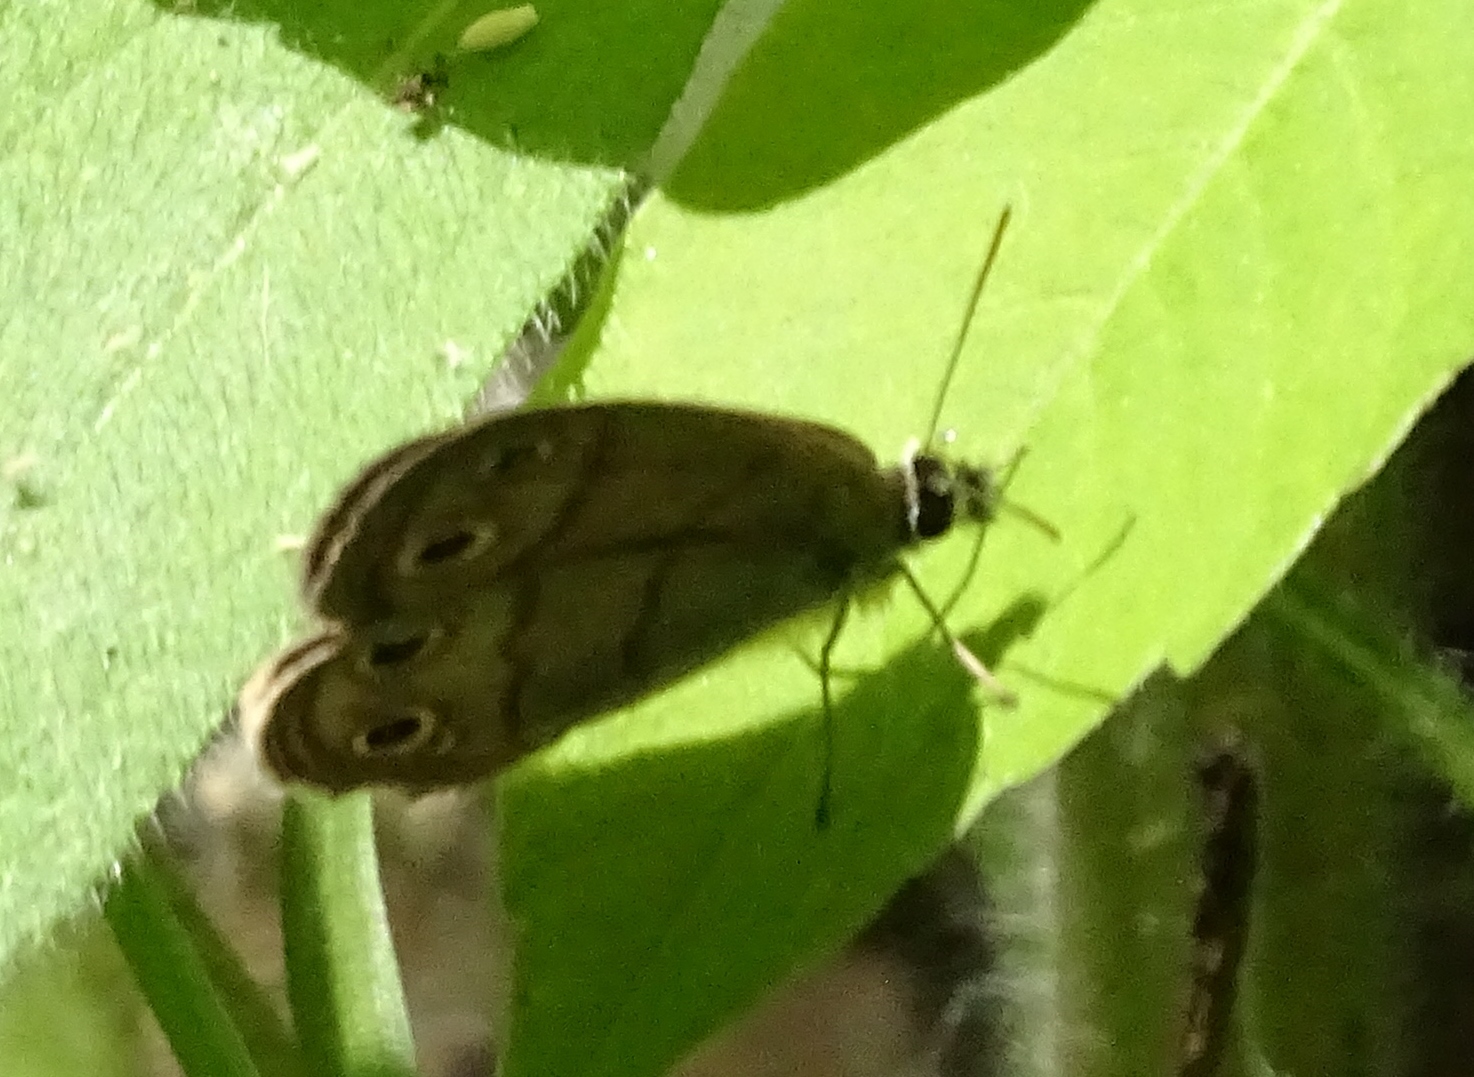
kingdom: Animalia
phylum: Arthropoda
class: Insecta
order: Lepidoptera
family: Nymphalidae
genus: Euptychia
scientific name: Euptychia cymela
